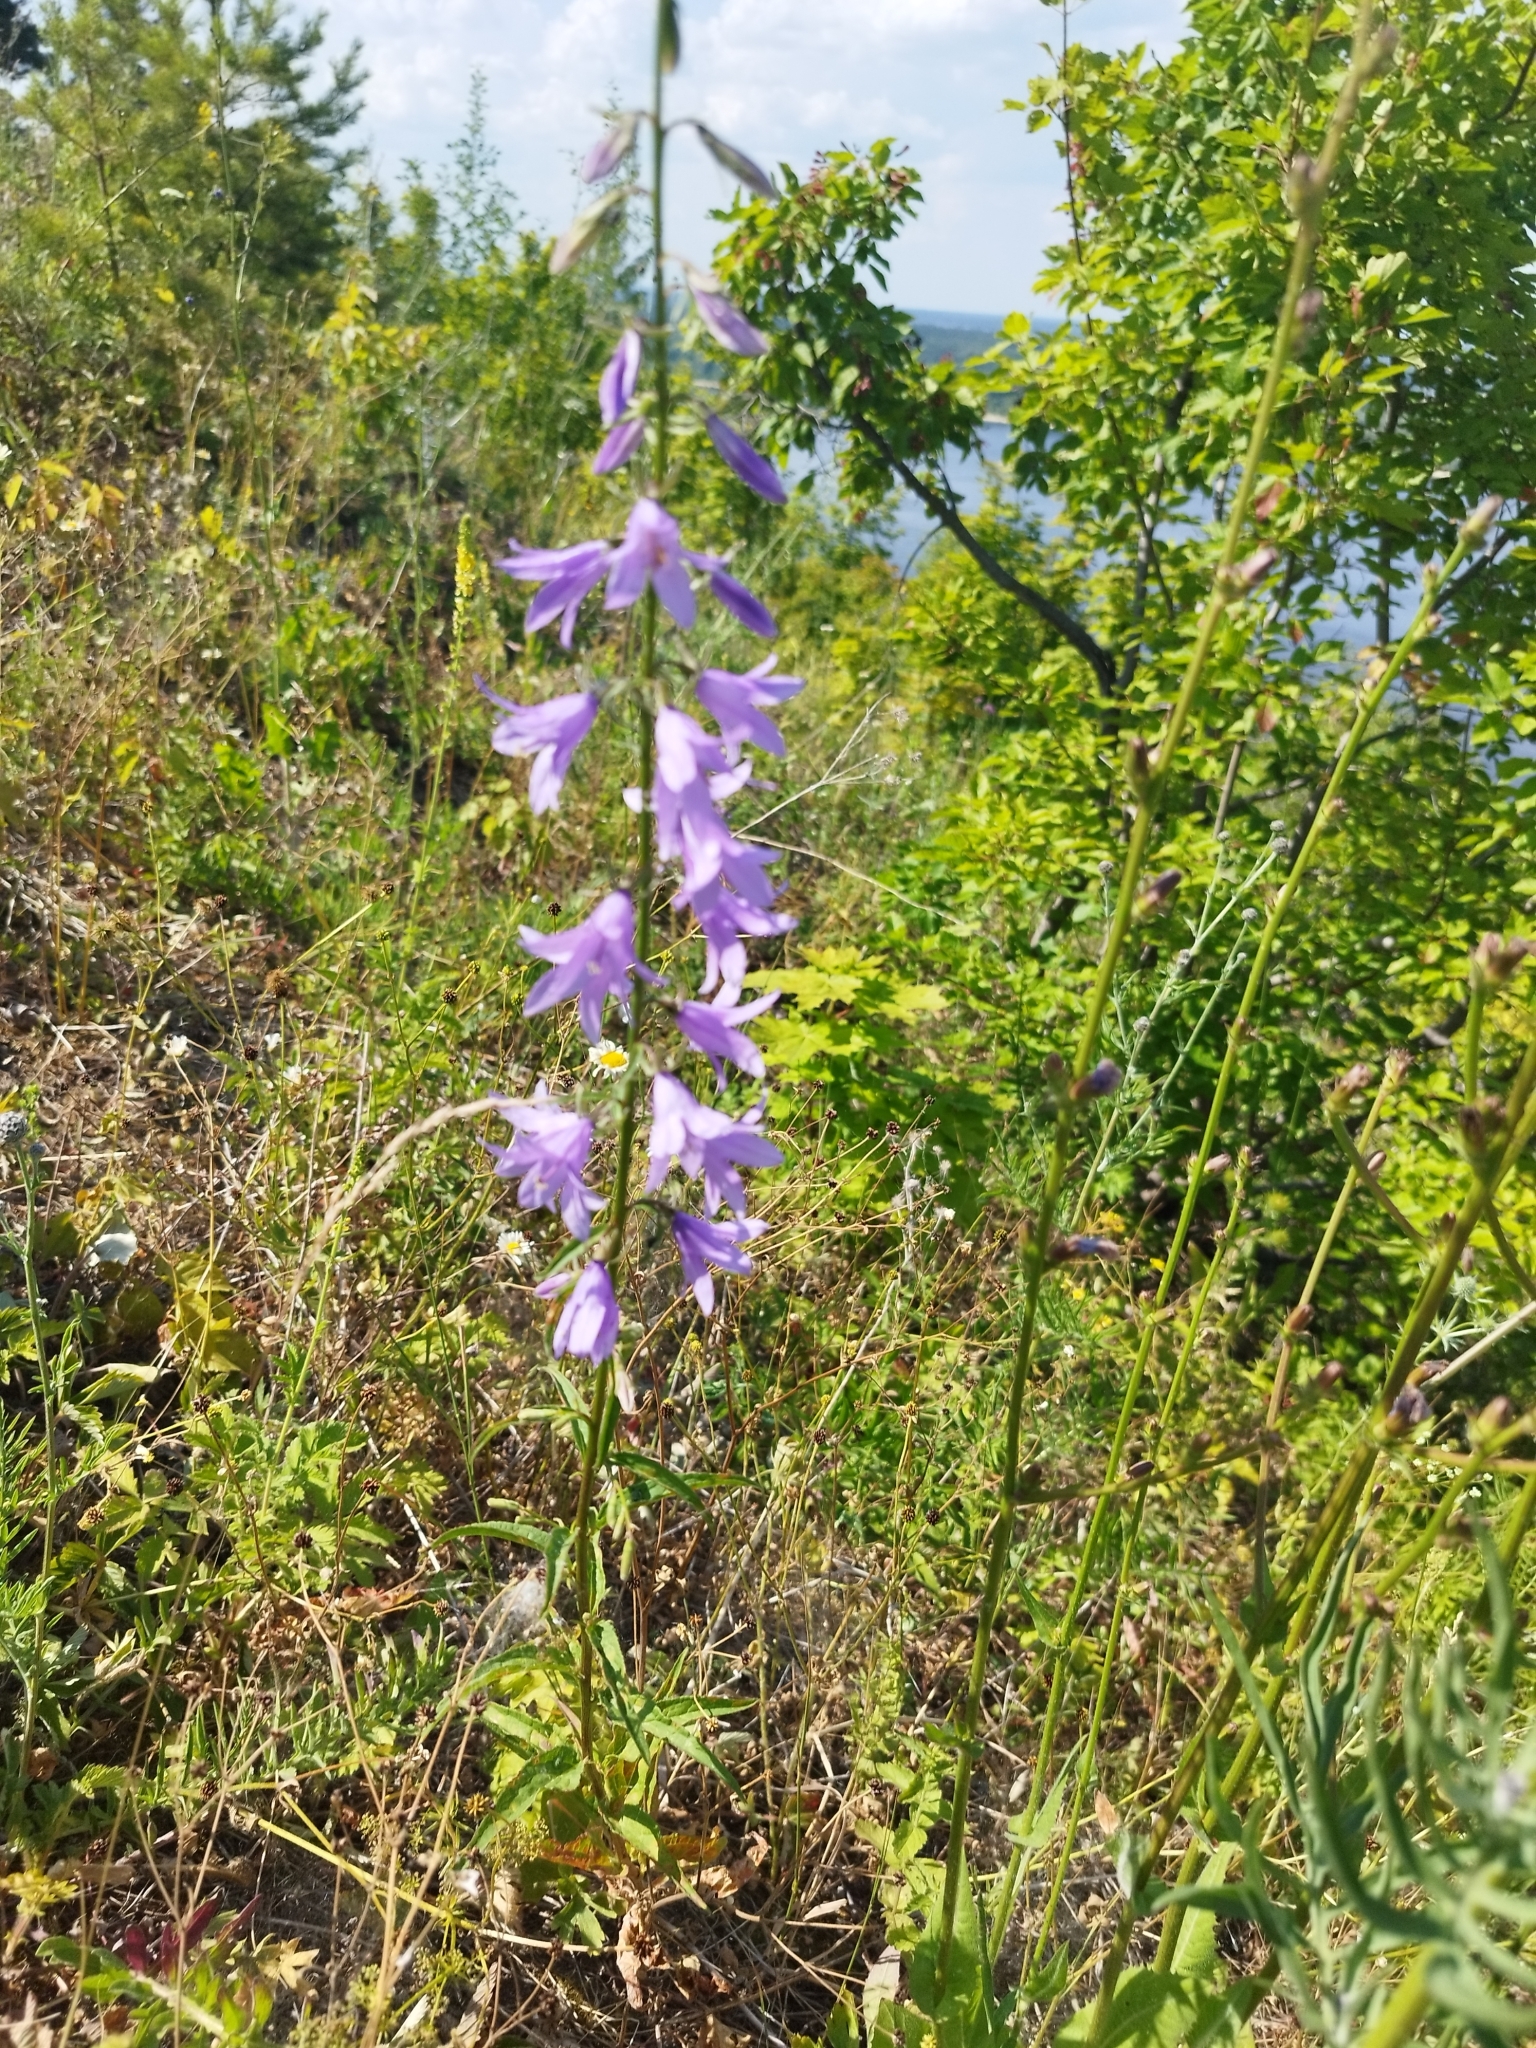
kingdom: Plantae
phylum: Tracheophyta
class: Magnoliopsida
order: Asterales
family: Campanulaceae
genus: Campanula
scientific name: Campanula rapunculoides
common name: Creeping bellflower
